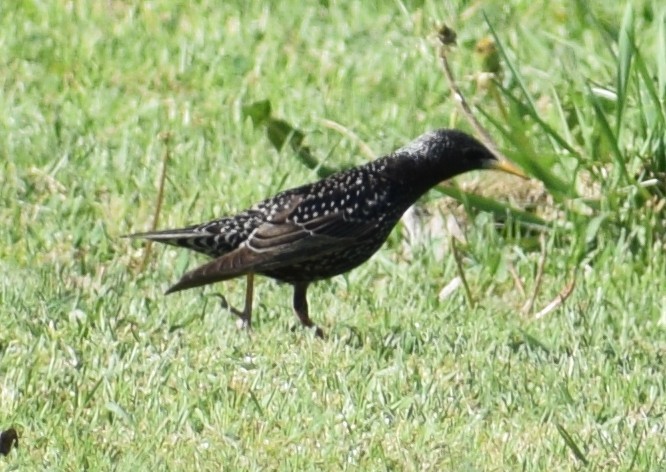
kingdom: Animalia
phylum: Chordata
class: Aves
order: Passeriformes
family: Sturnidae
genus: Sturnus
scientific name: Sturnus vulgaris
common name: Common starling
